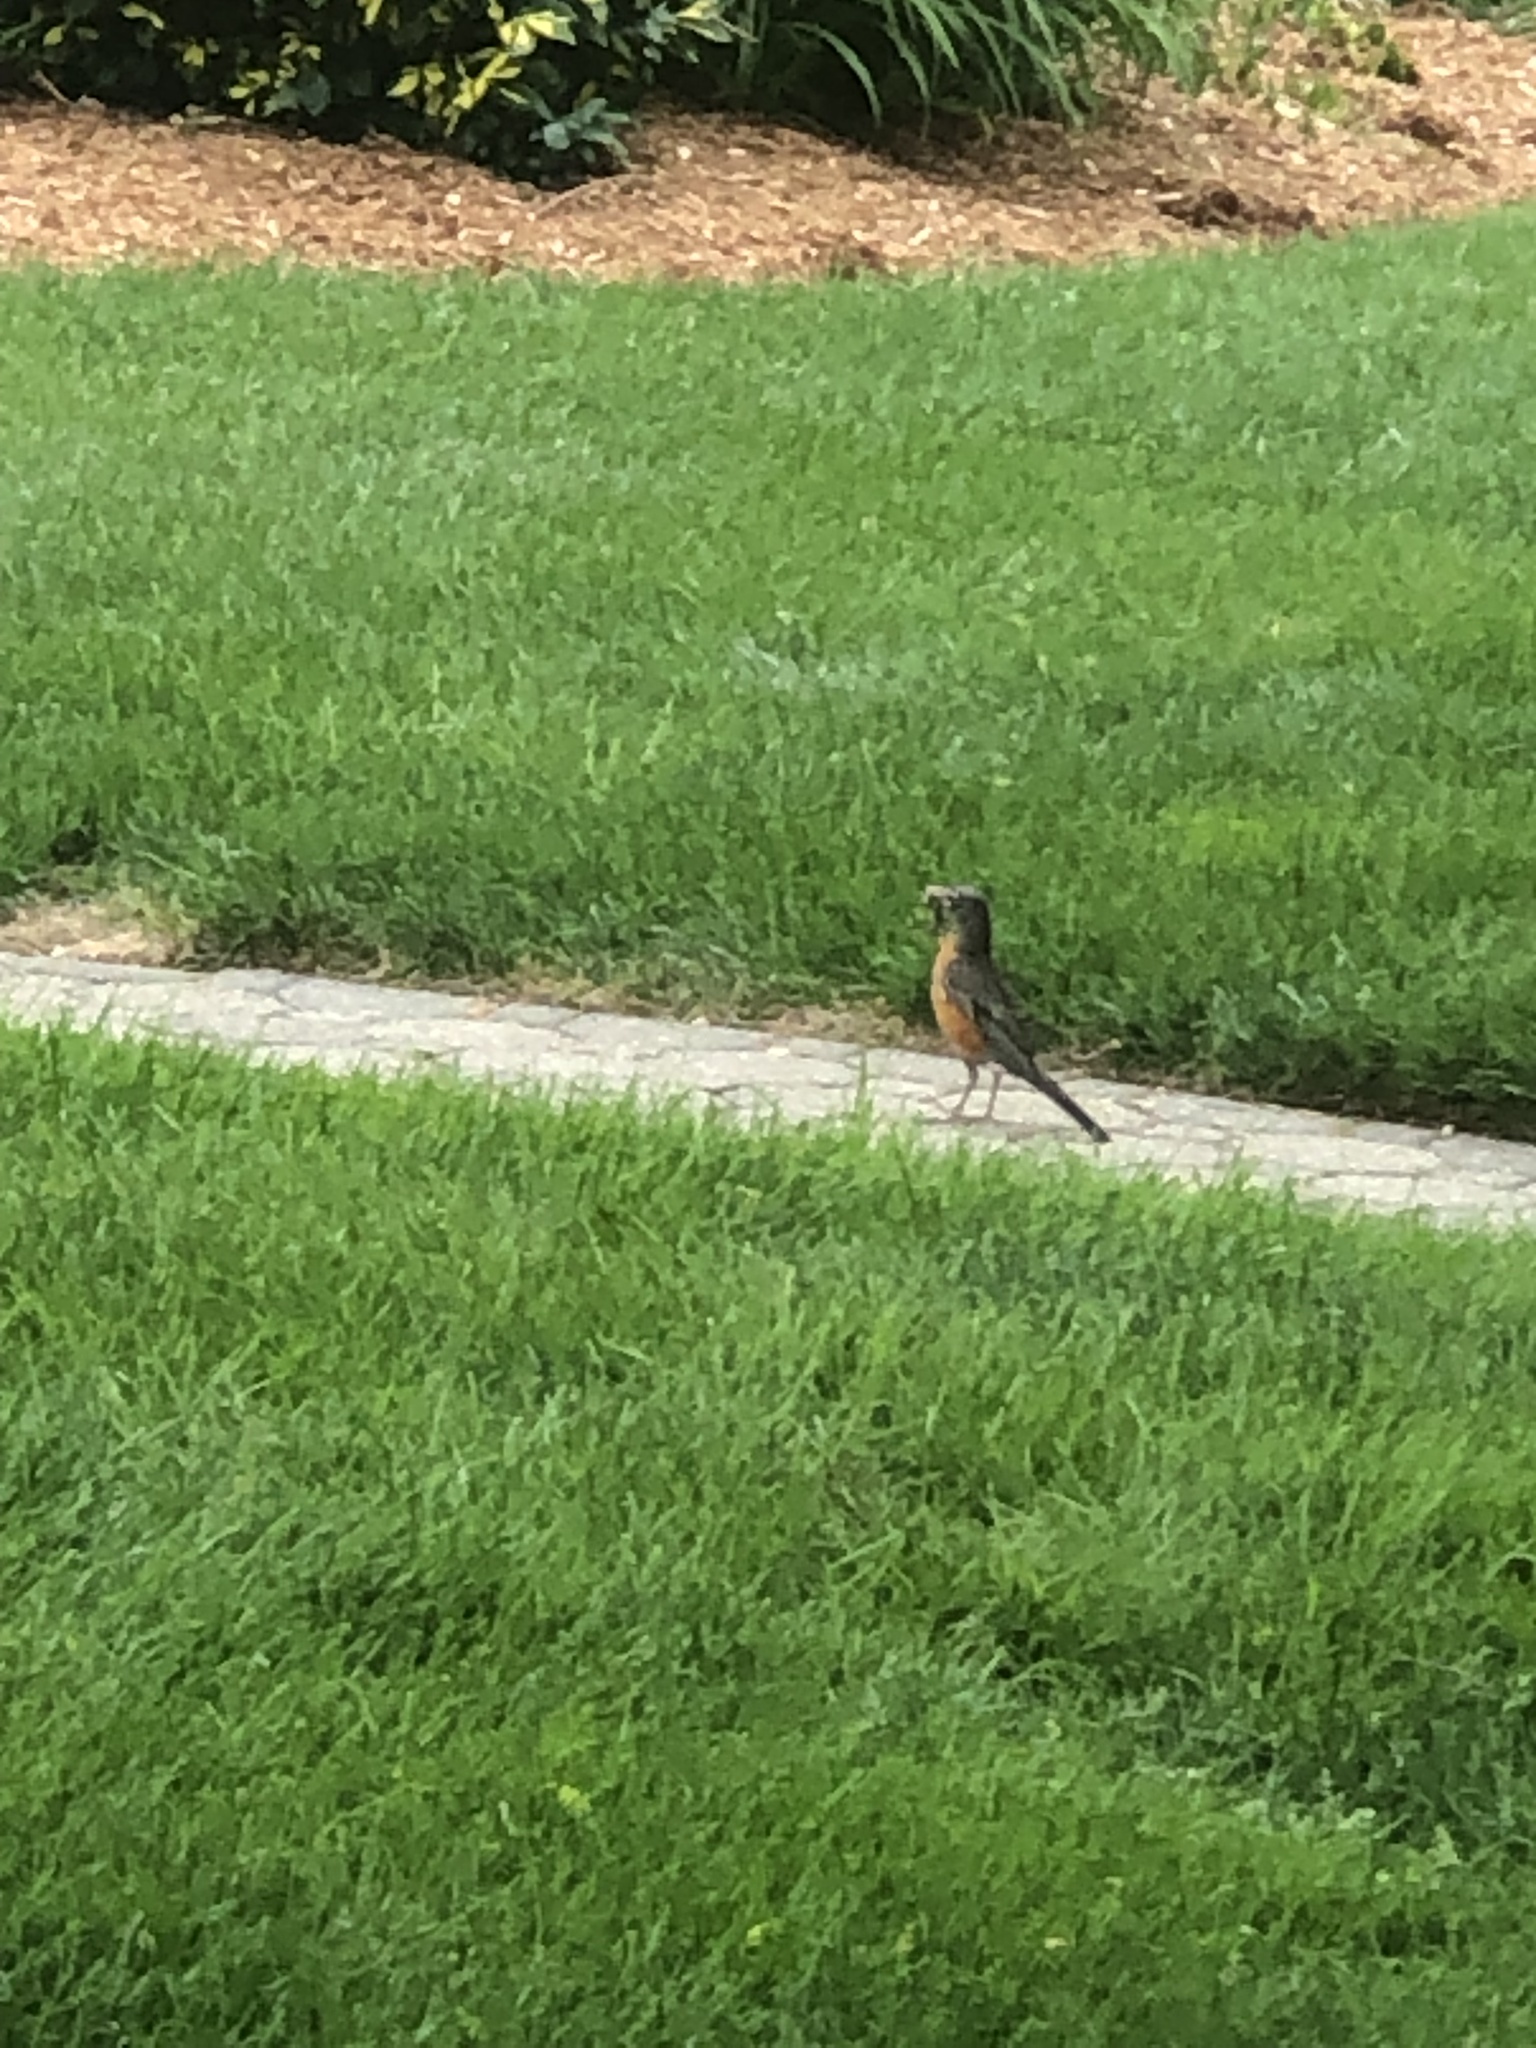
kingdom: Animalia
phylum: Chordata
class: Aves
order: Passeriformes
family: Turdidae
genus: Turdus
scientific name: Turdus migratorius
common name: American robin
